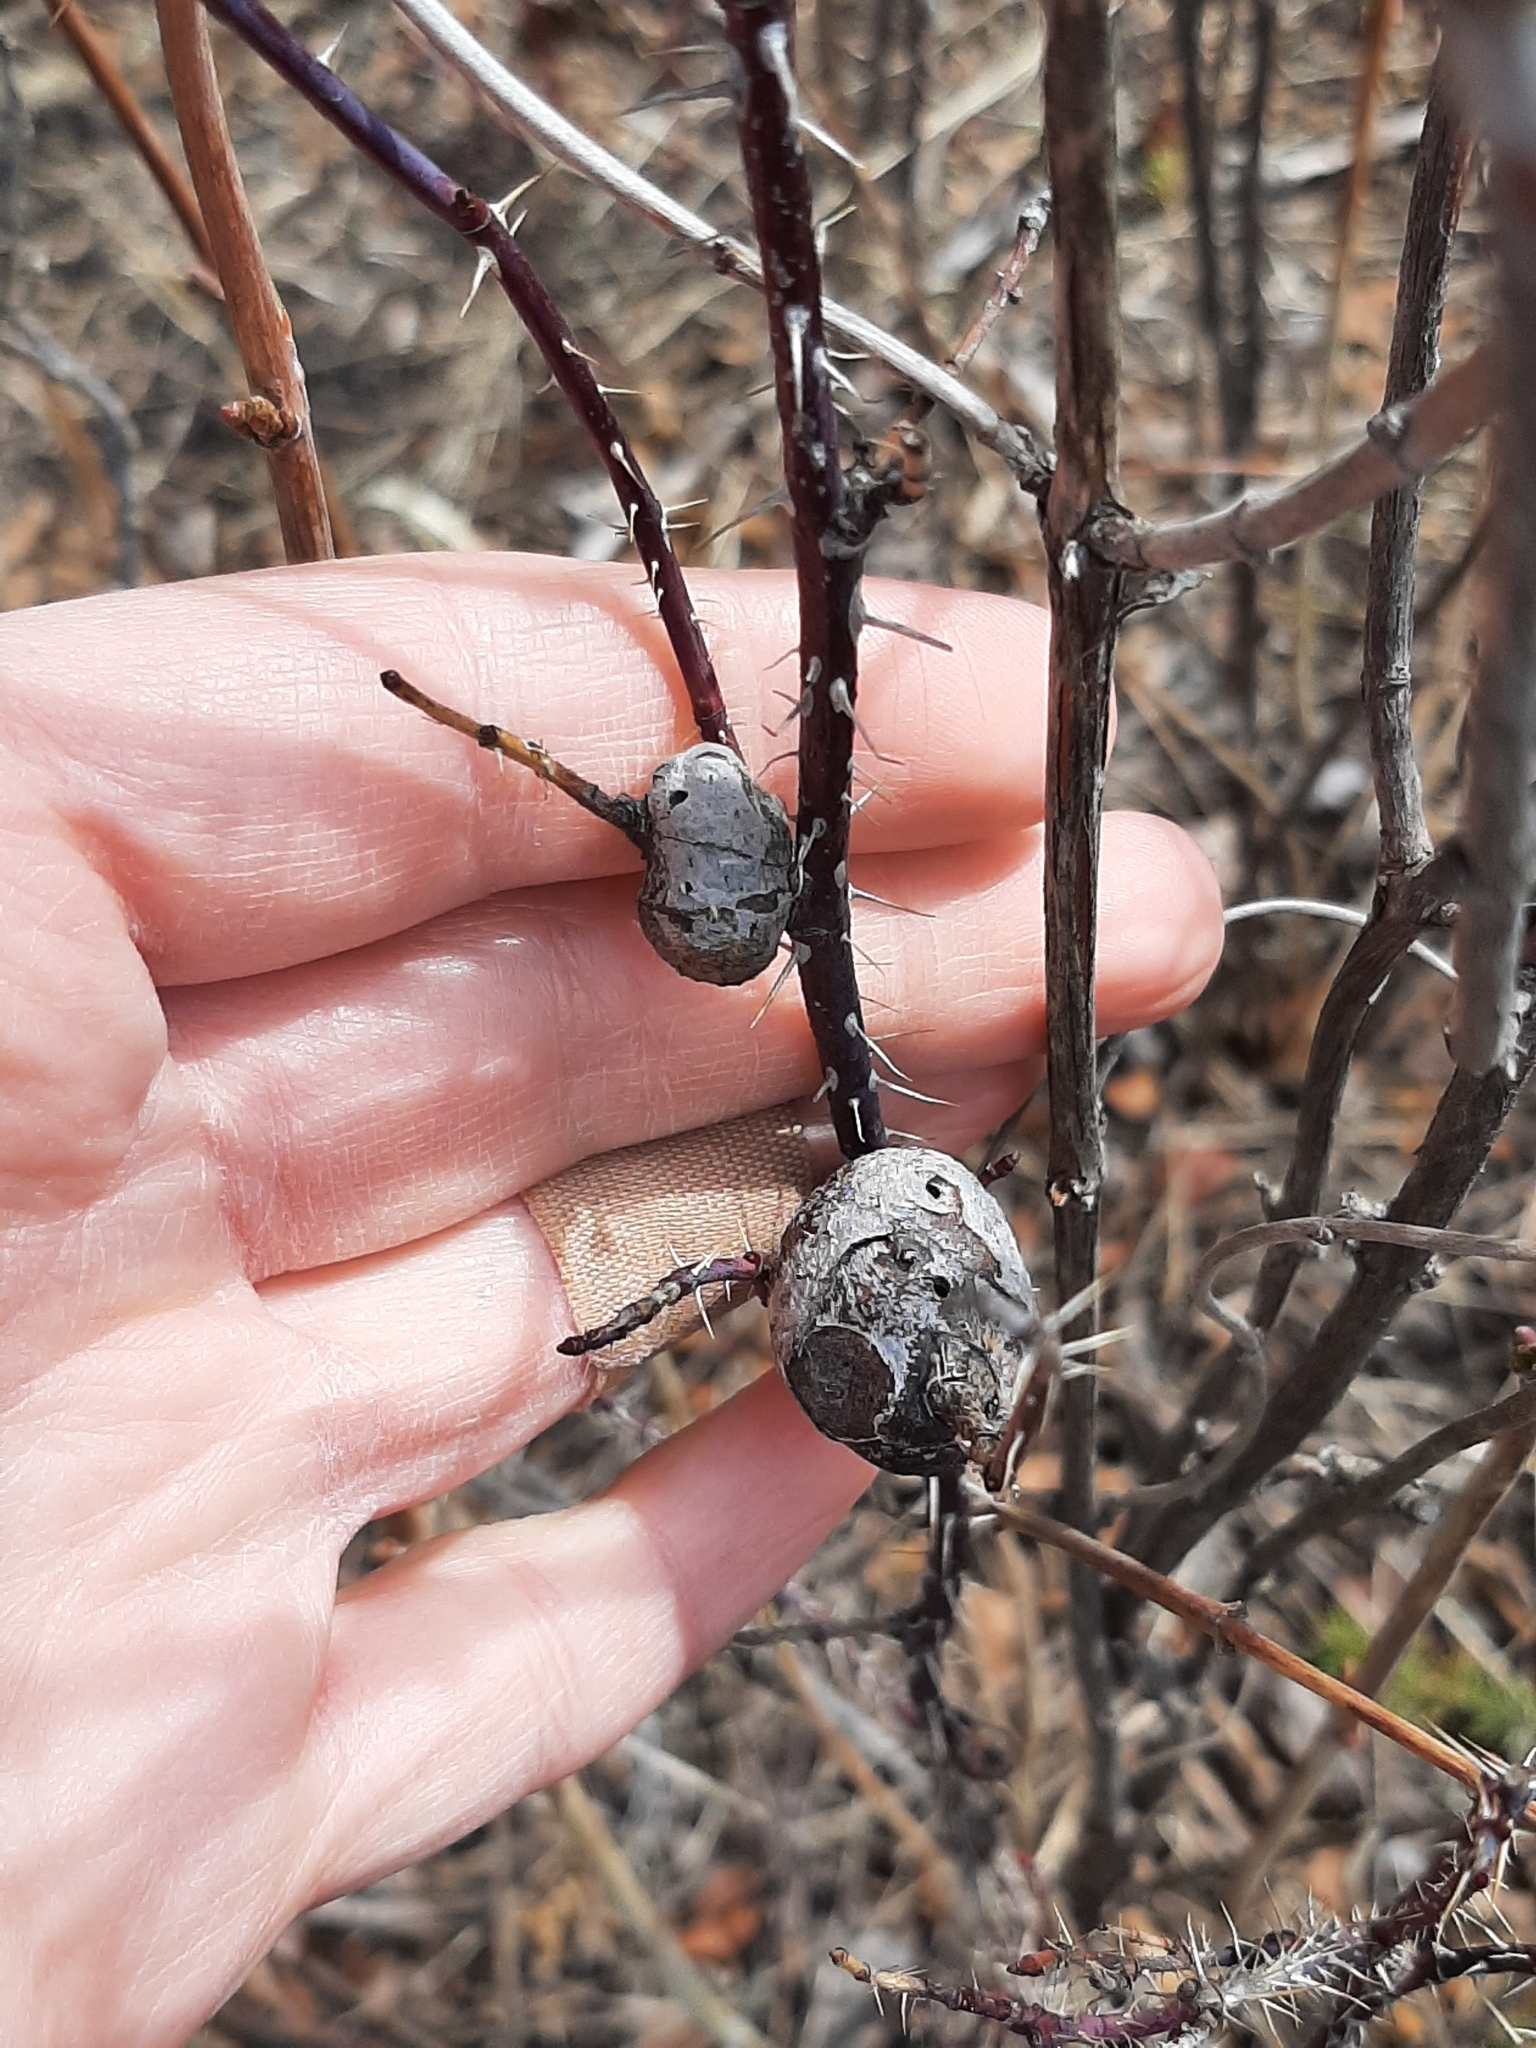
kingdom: Animalia
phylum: Arthropoda
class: Insecta
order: Hymenoptera
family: Cynipidae
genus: Diplolepis
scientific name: Diplolepis spinosa
